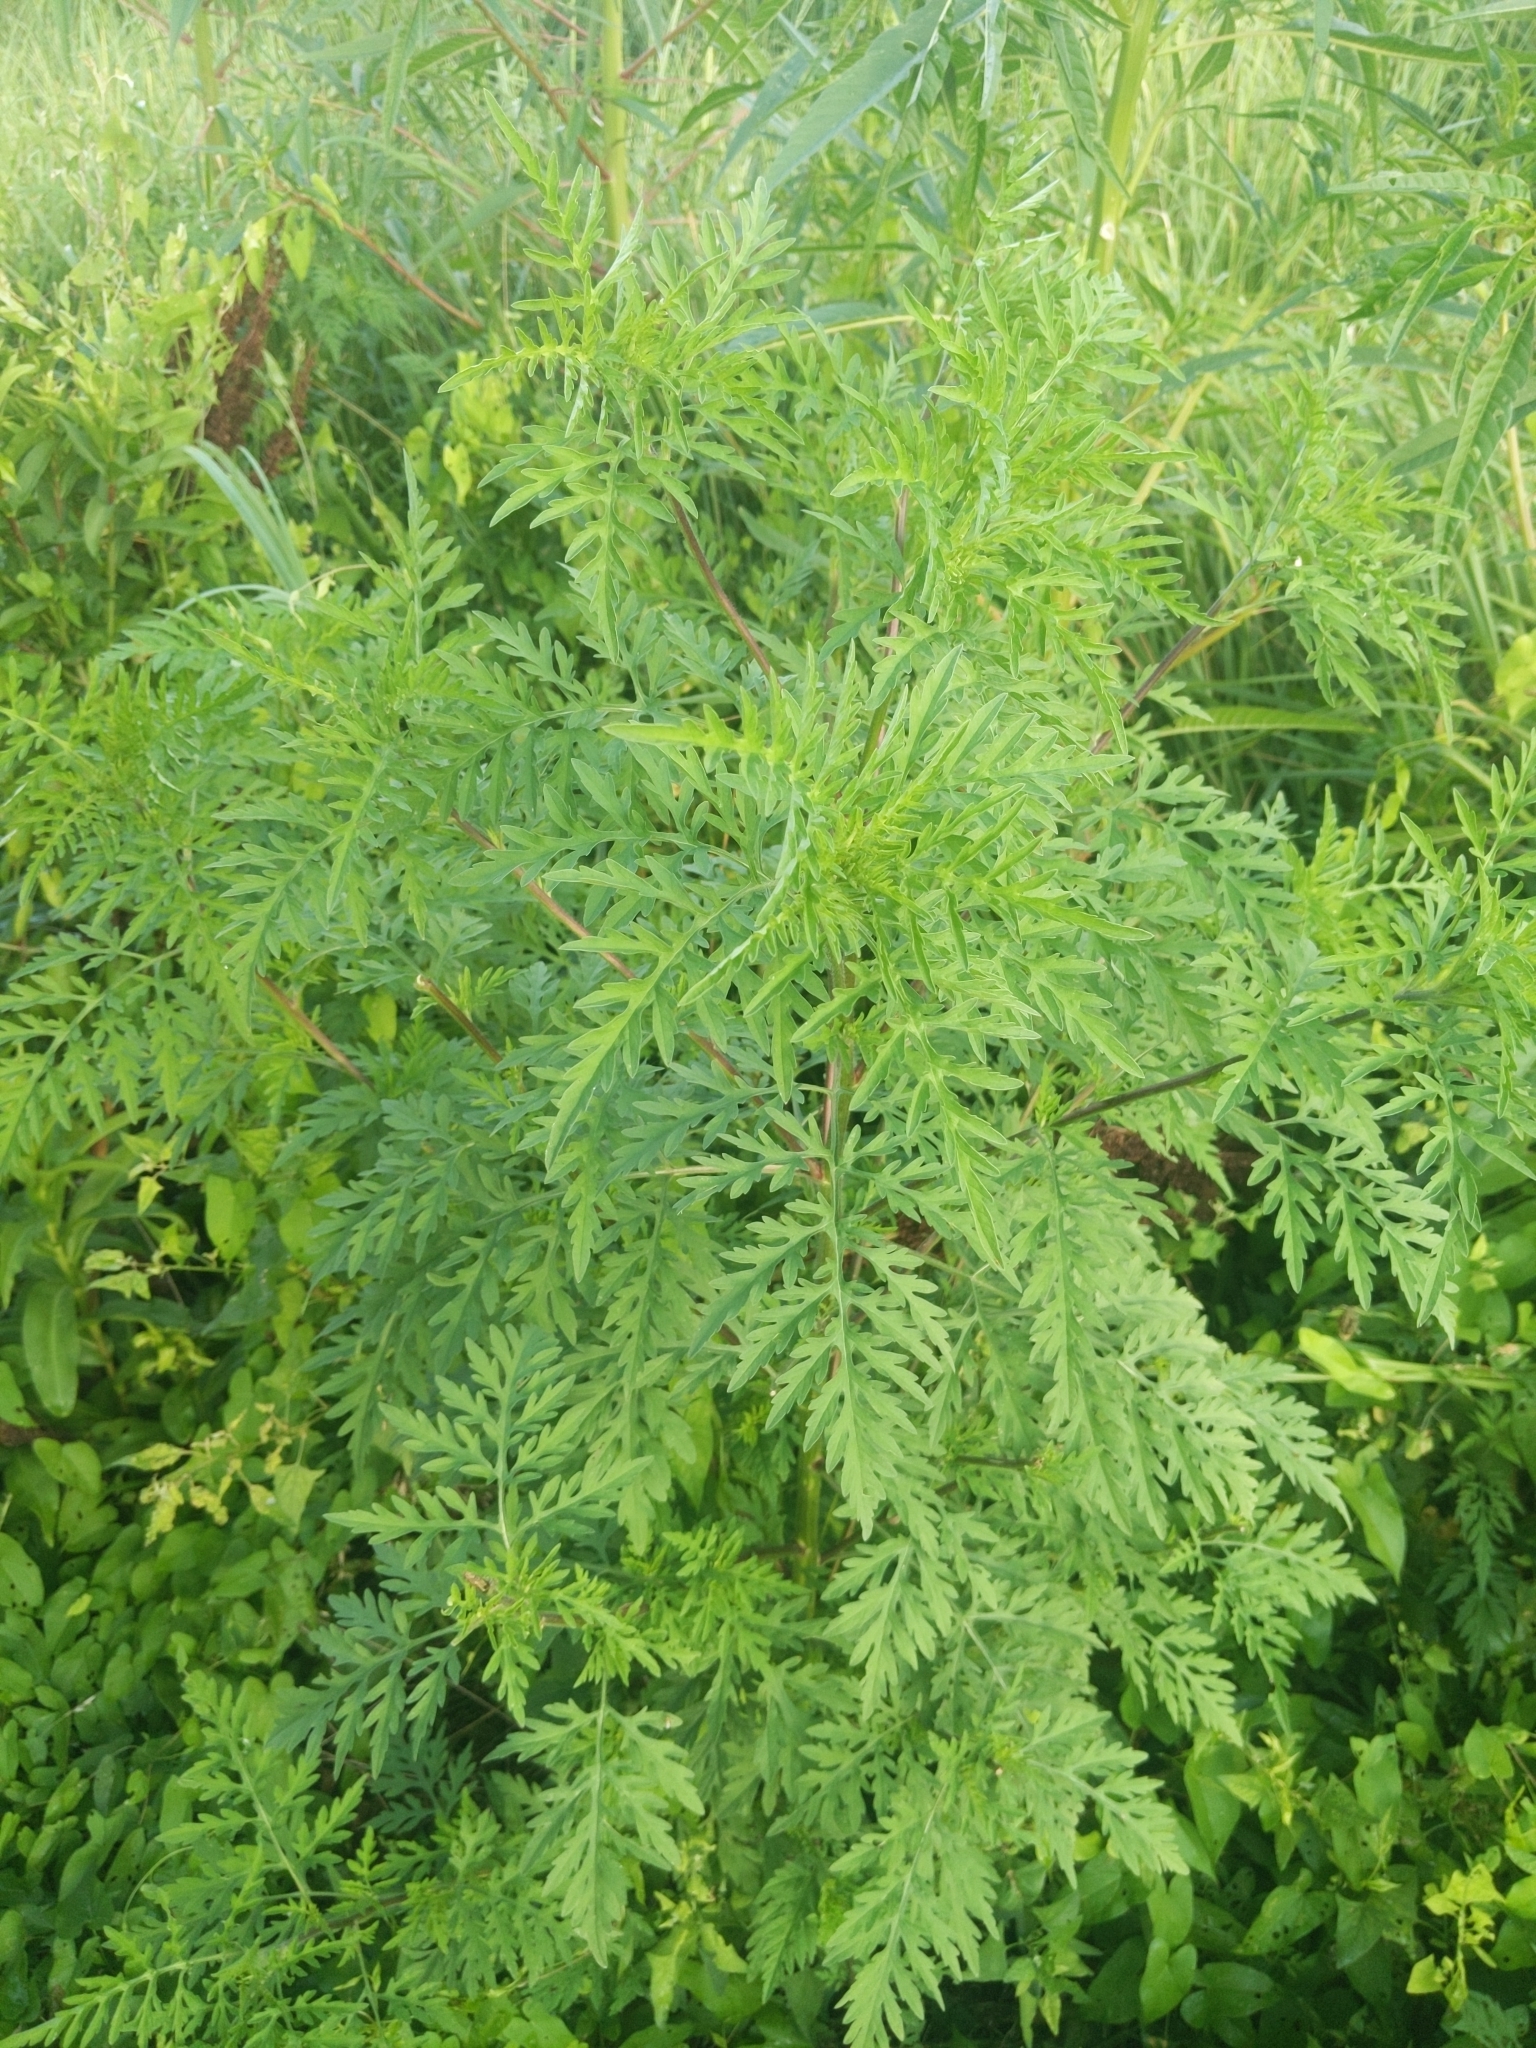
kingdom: Plantae
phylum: Tracheophyta
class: Magnoliopsida
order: Asterales
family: Asteraceae
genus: Ambrosia
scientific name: Ambrosia artemisiifolia
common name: Annual ragweed
